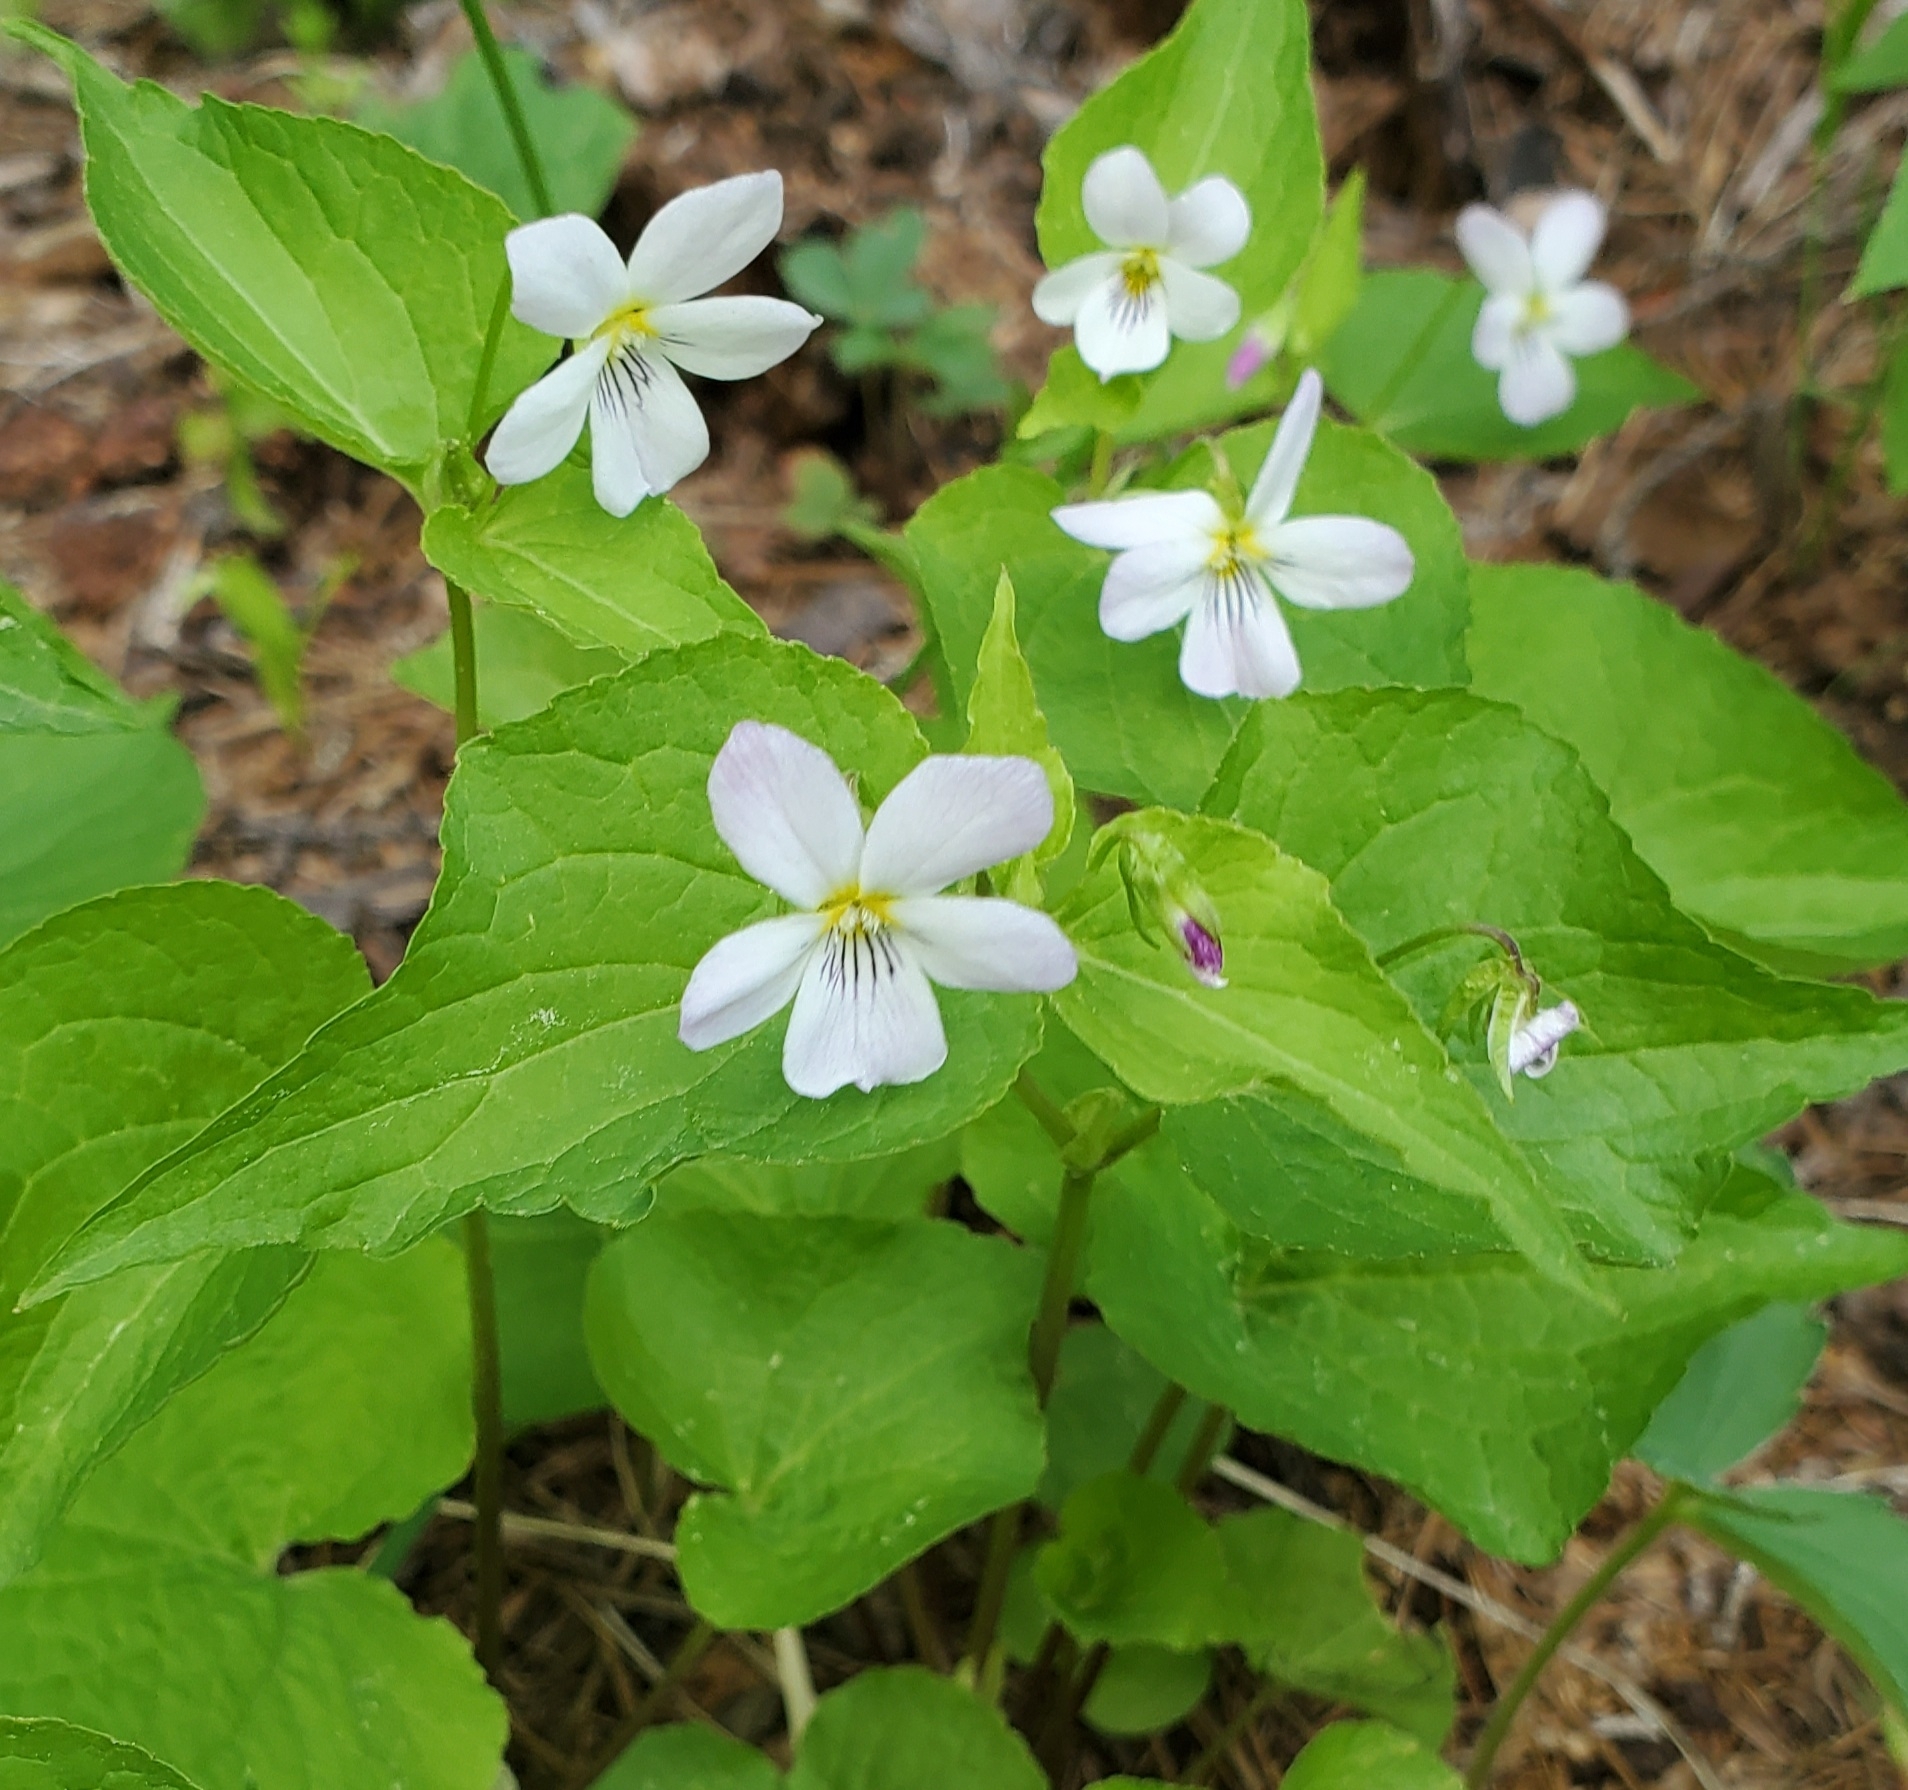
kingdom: Plantae
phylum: Tracheophyta
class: Magnoliopsida
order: Malpighiales
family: Violaceae
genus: Viola
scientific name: Viola canadensis
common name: Canada violet
